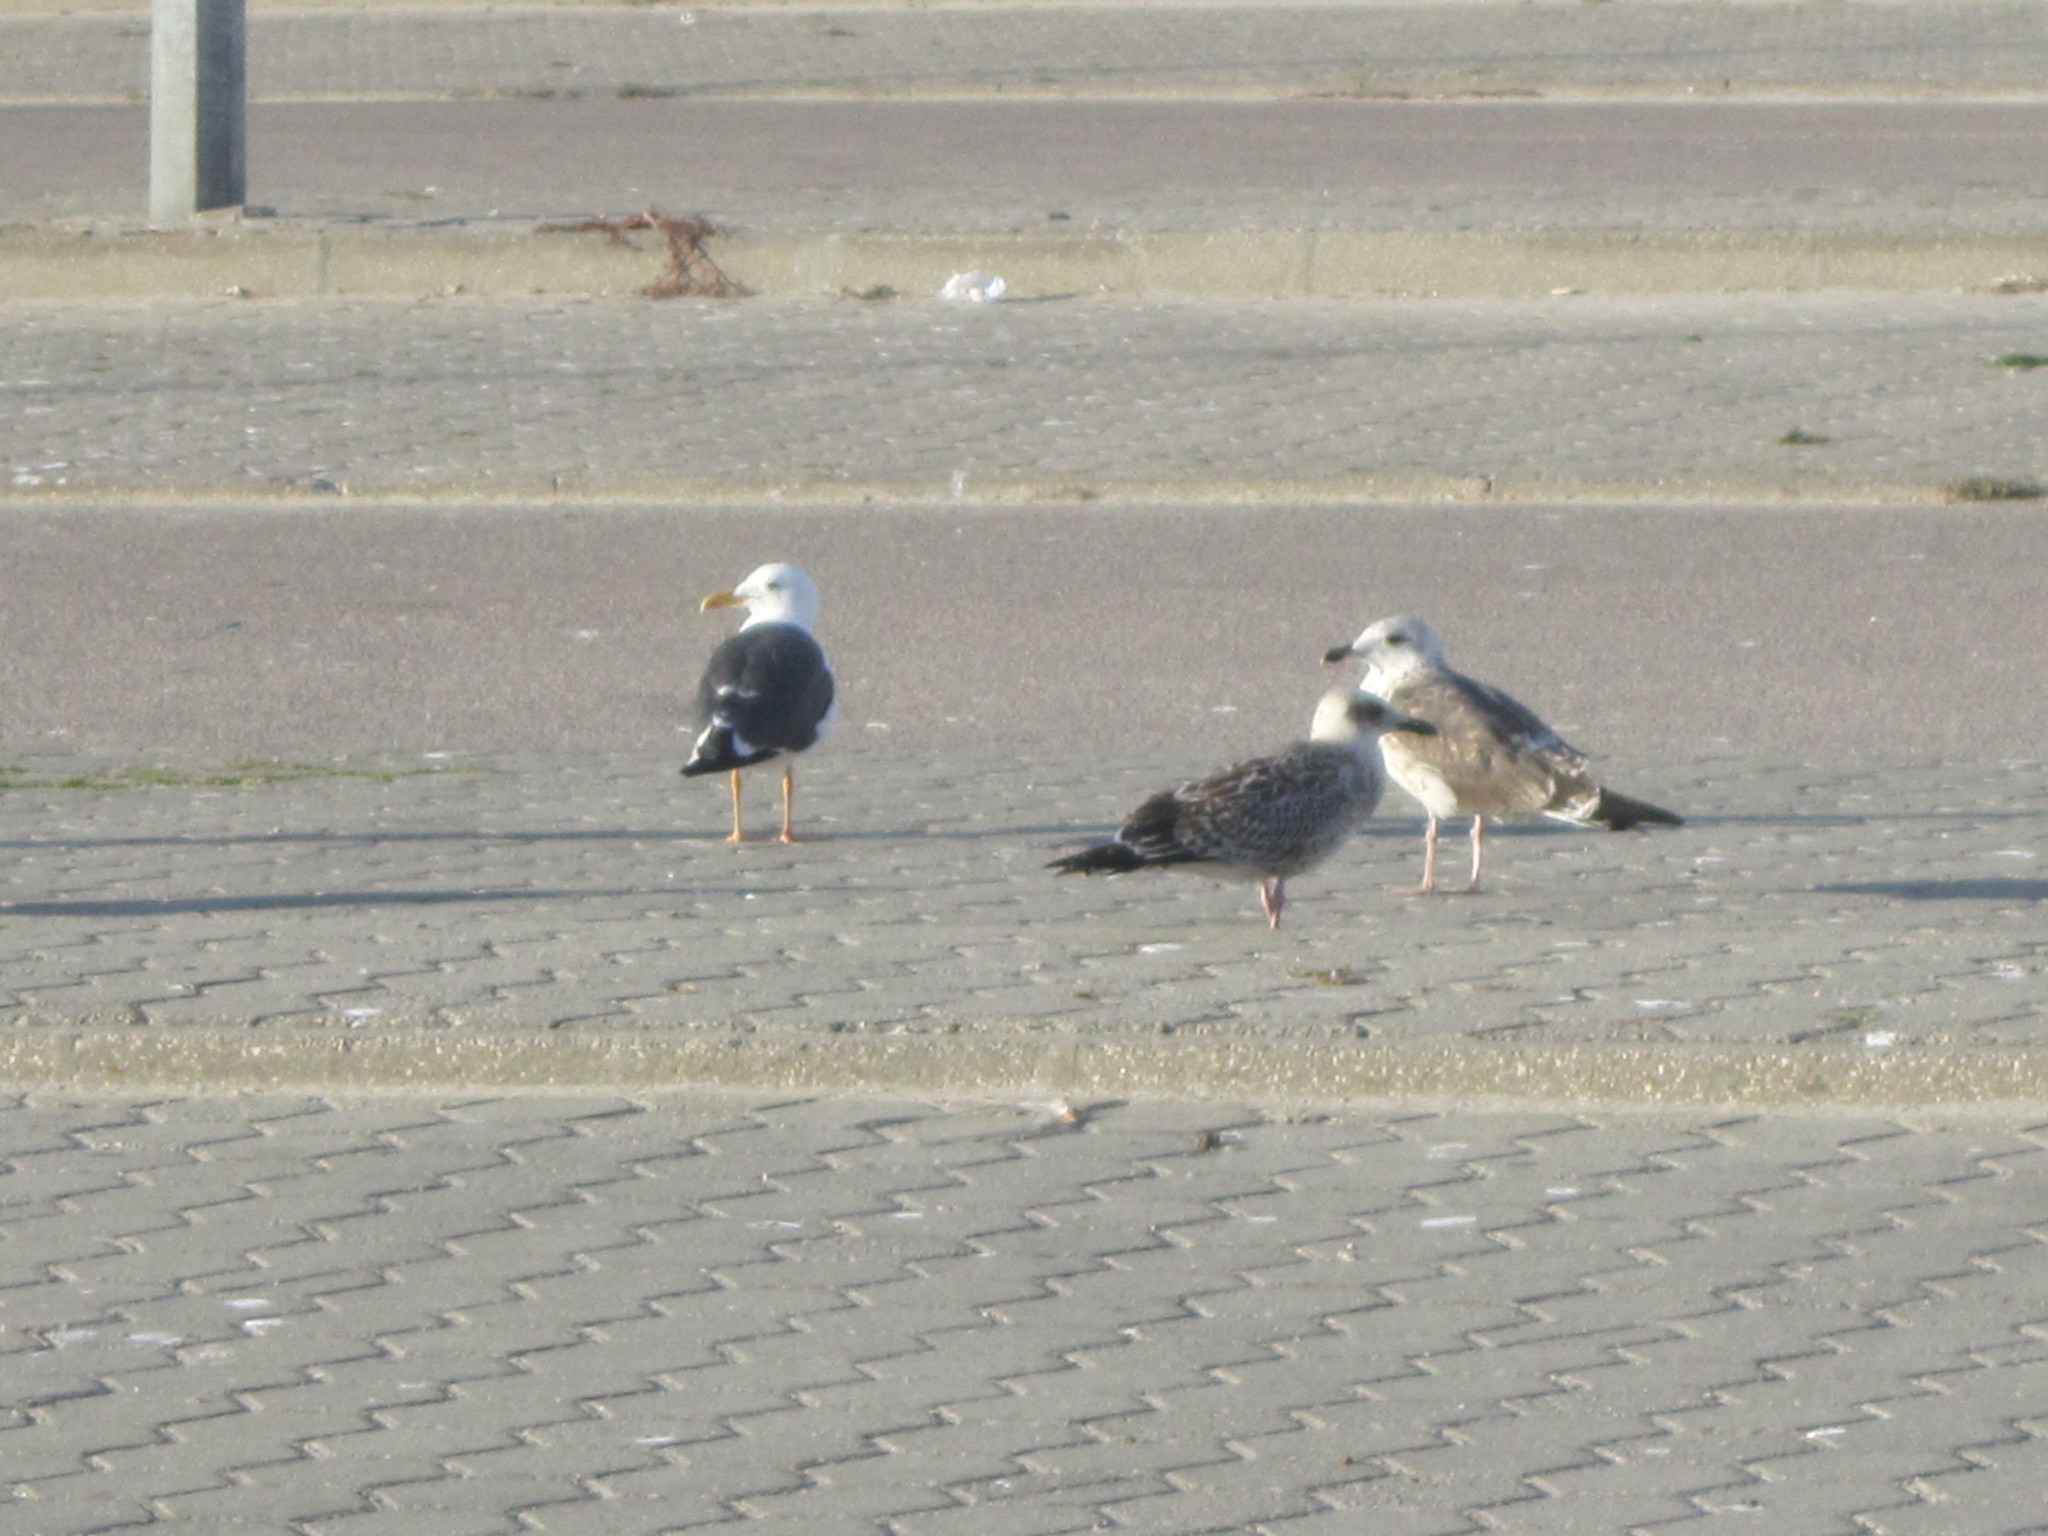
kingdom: Animalia
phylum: Chordata
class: Aves
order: Charadriiformes
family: Laridae
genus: Larus
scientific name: Larus fuscus
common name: Lesser black-backed gull
